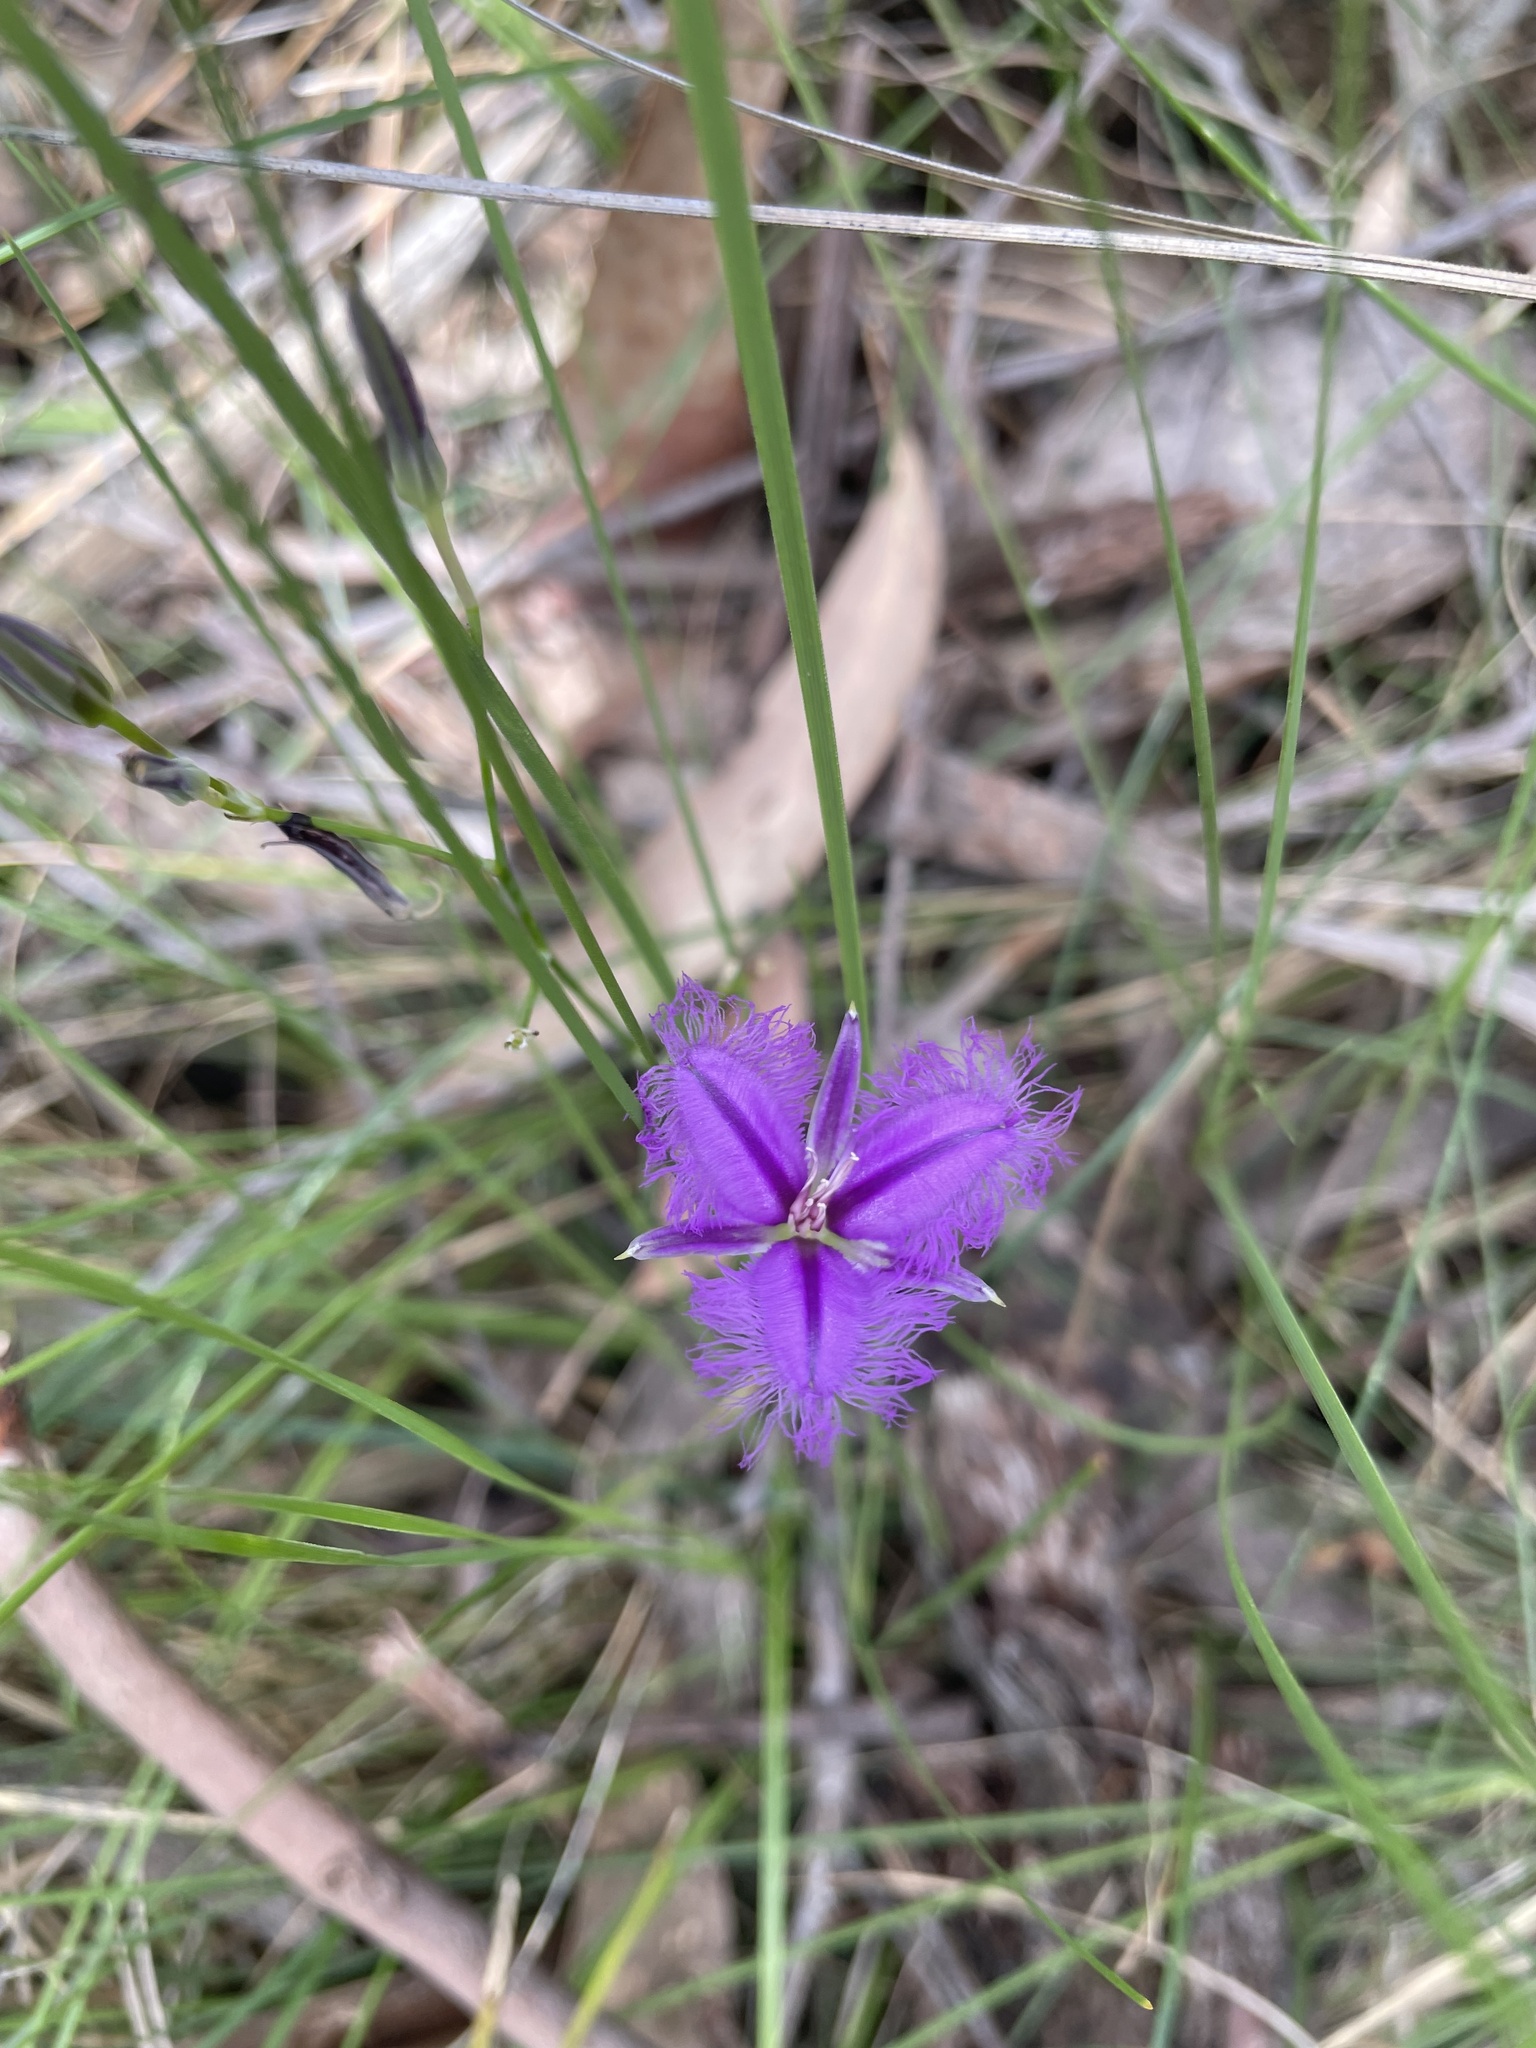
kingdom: Plantae
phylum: Tracheophyta
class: Liliopsida
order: Asparagales
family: Asparagaceae
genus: Thysanotus
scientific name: Thysanotus tuberosus
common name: Common fringed-lily
